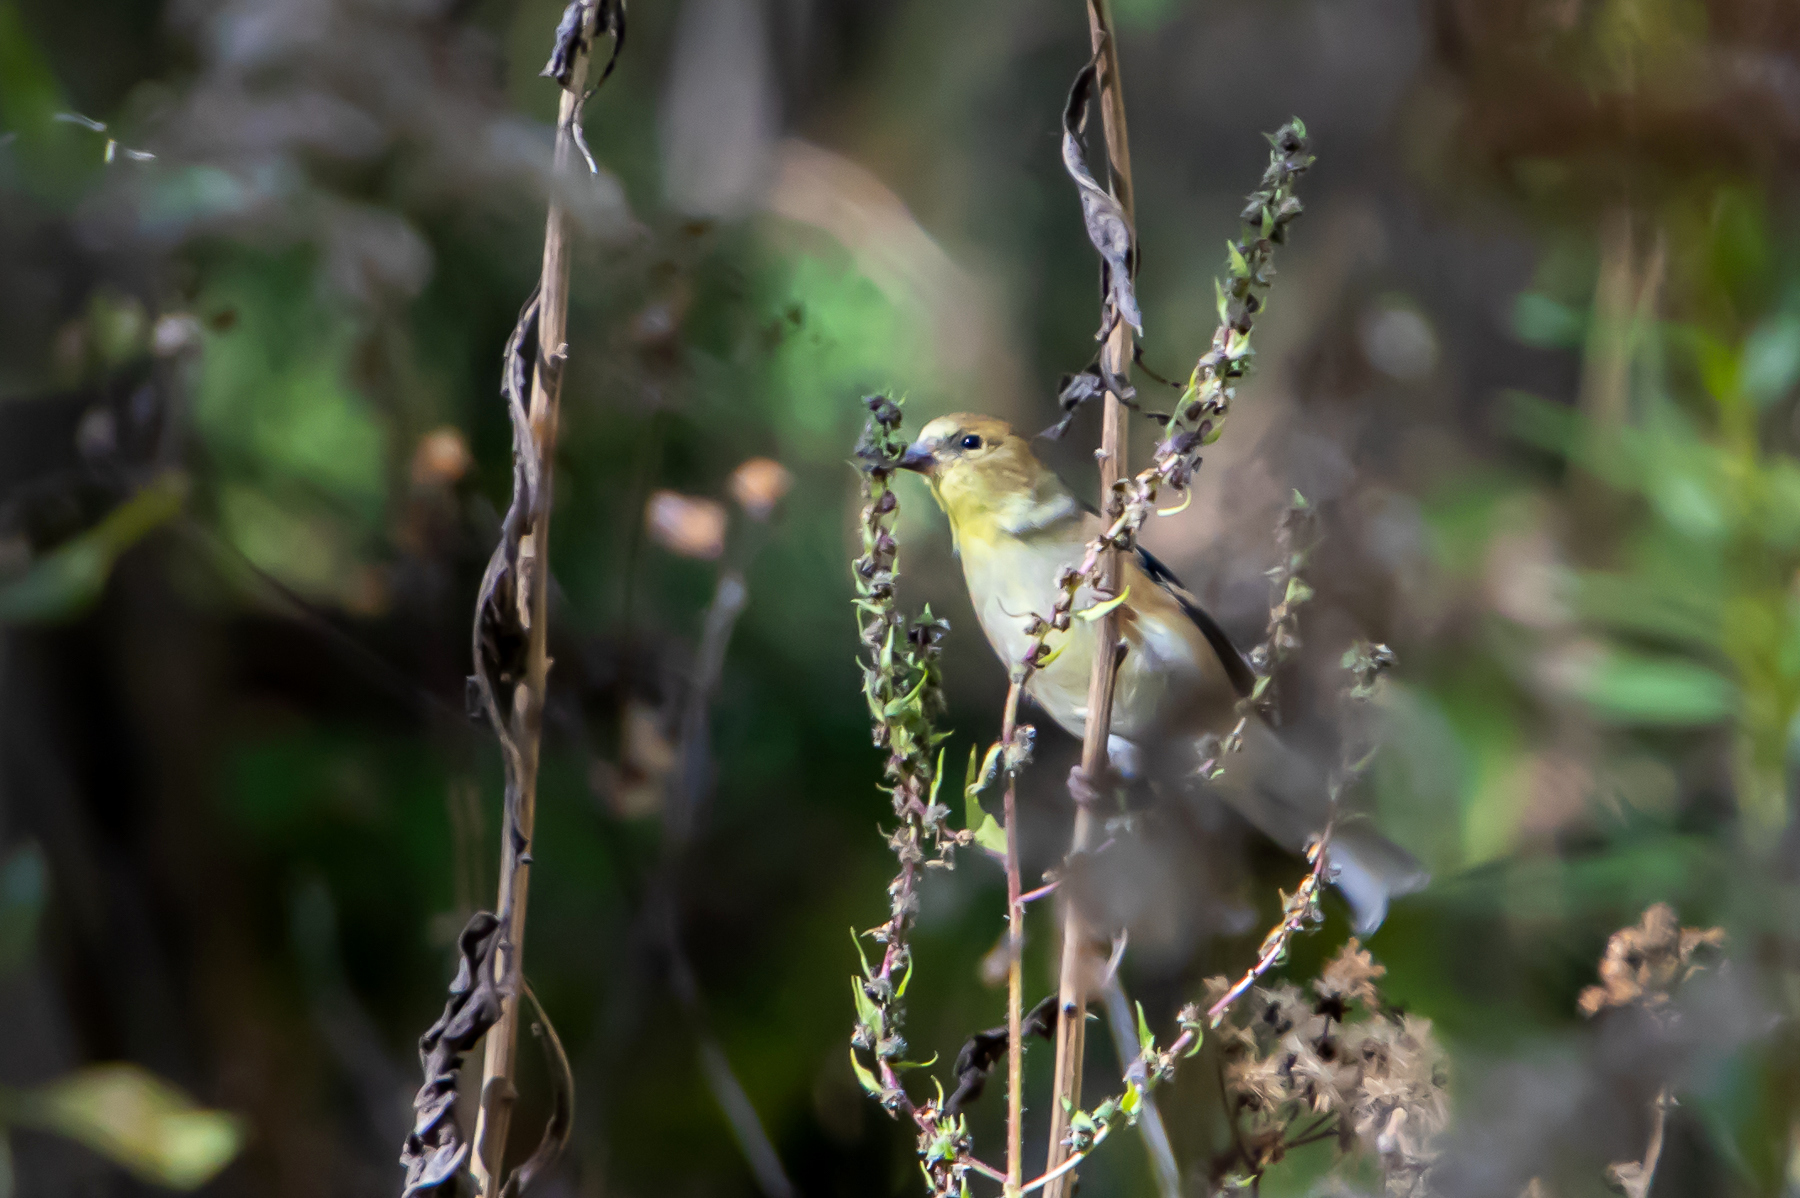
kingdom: Animalia
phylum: Chordata
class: Aves
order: Passeriformes
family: Fringillidae
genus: Spinus
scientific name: Spinus tristis
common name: American goldfinch
